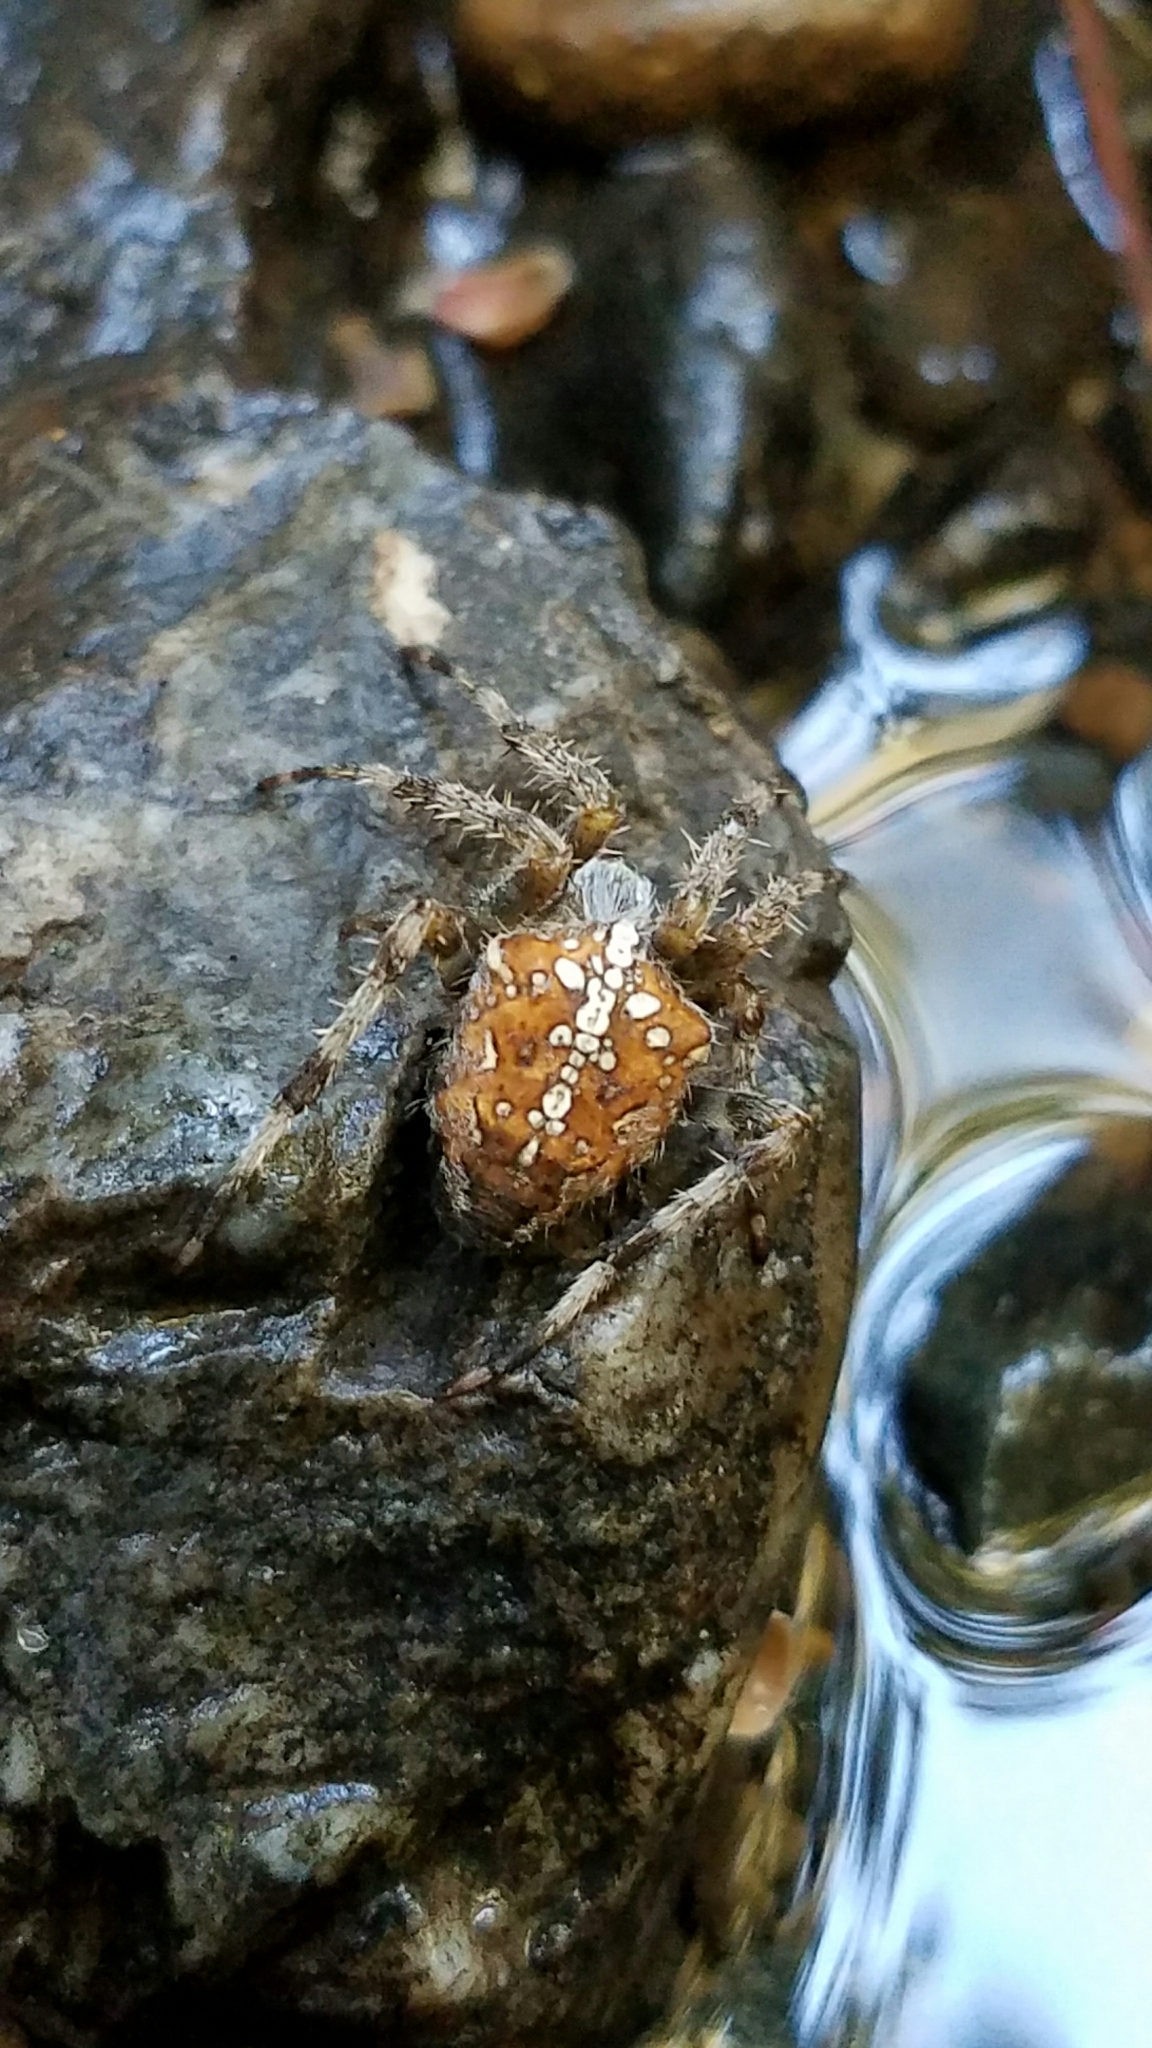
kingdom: Animalia
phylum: Arthropoda
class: Arachnida
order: Araneae
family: Araneidae
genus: Araneus
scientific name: Araneus diadematus
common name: Cross orbweaver
